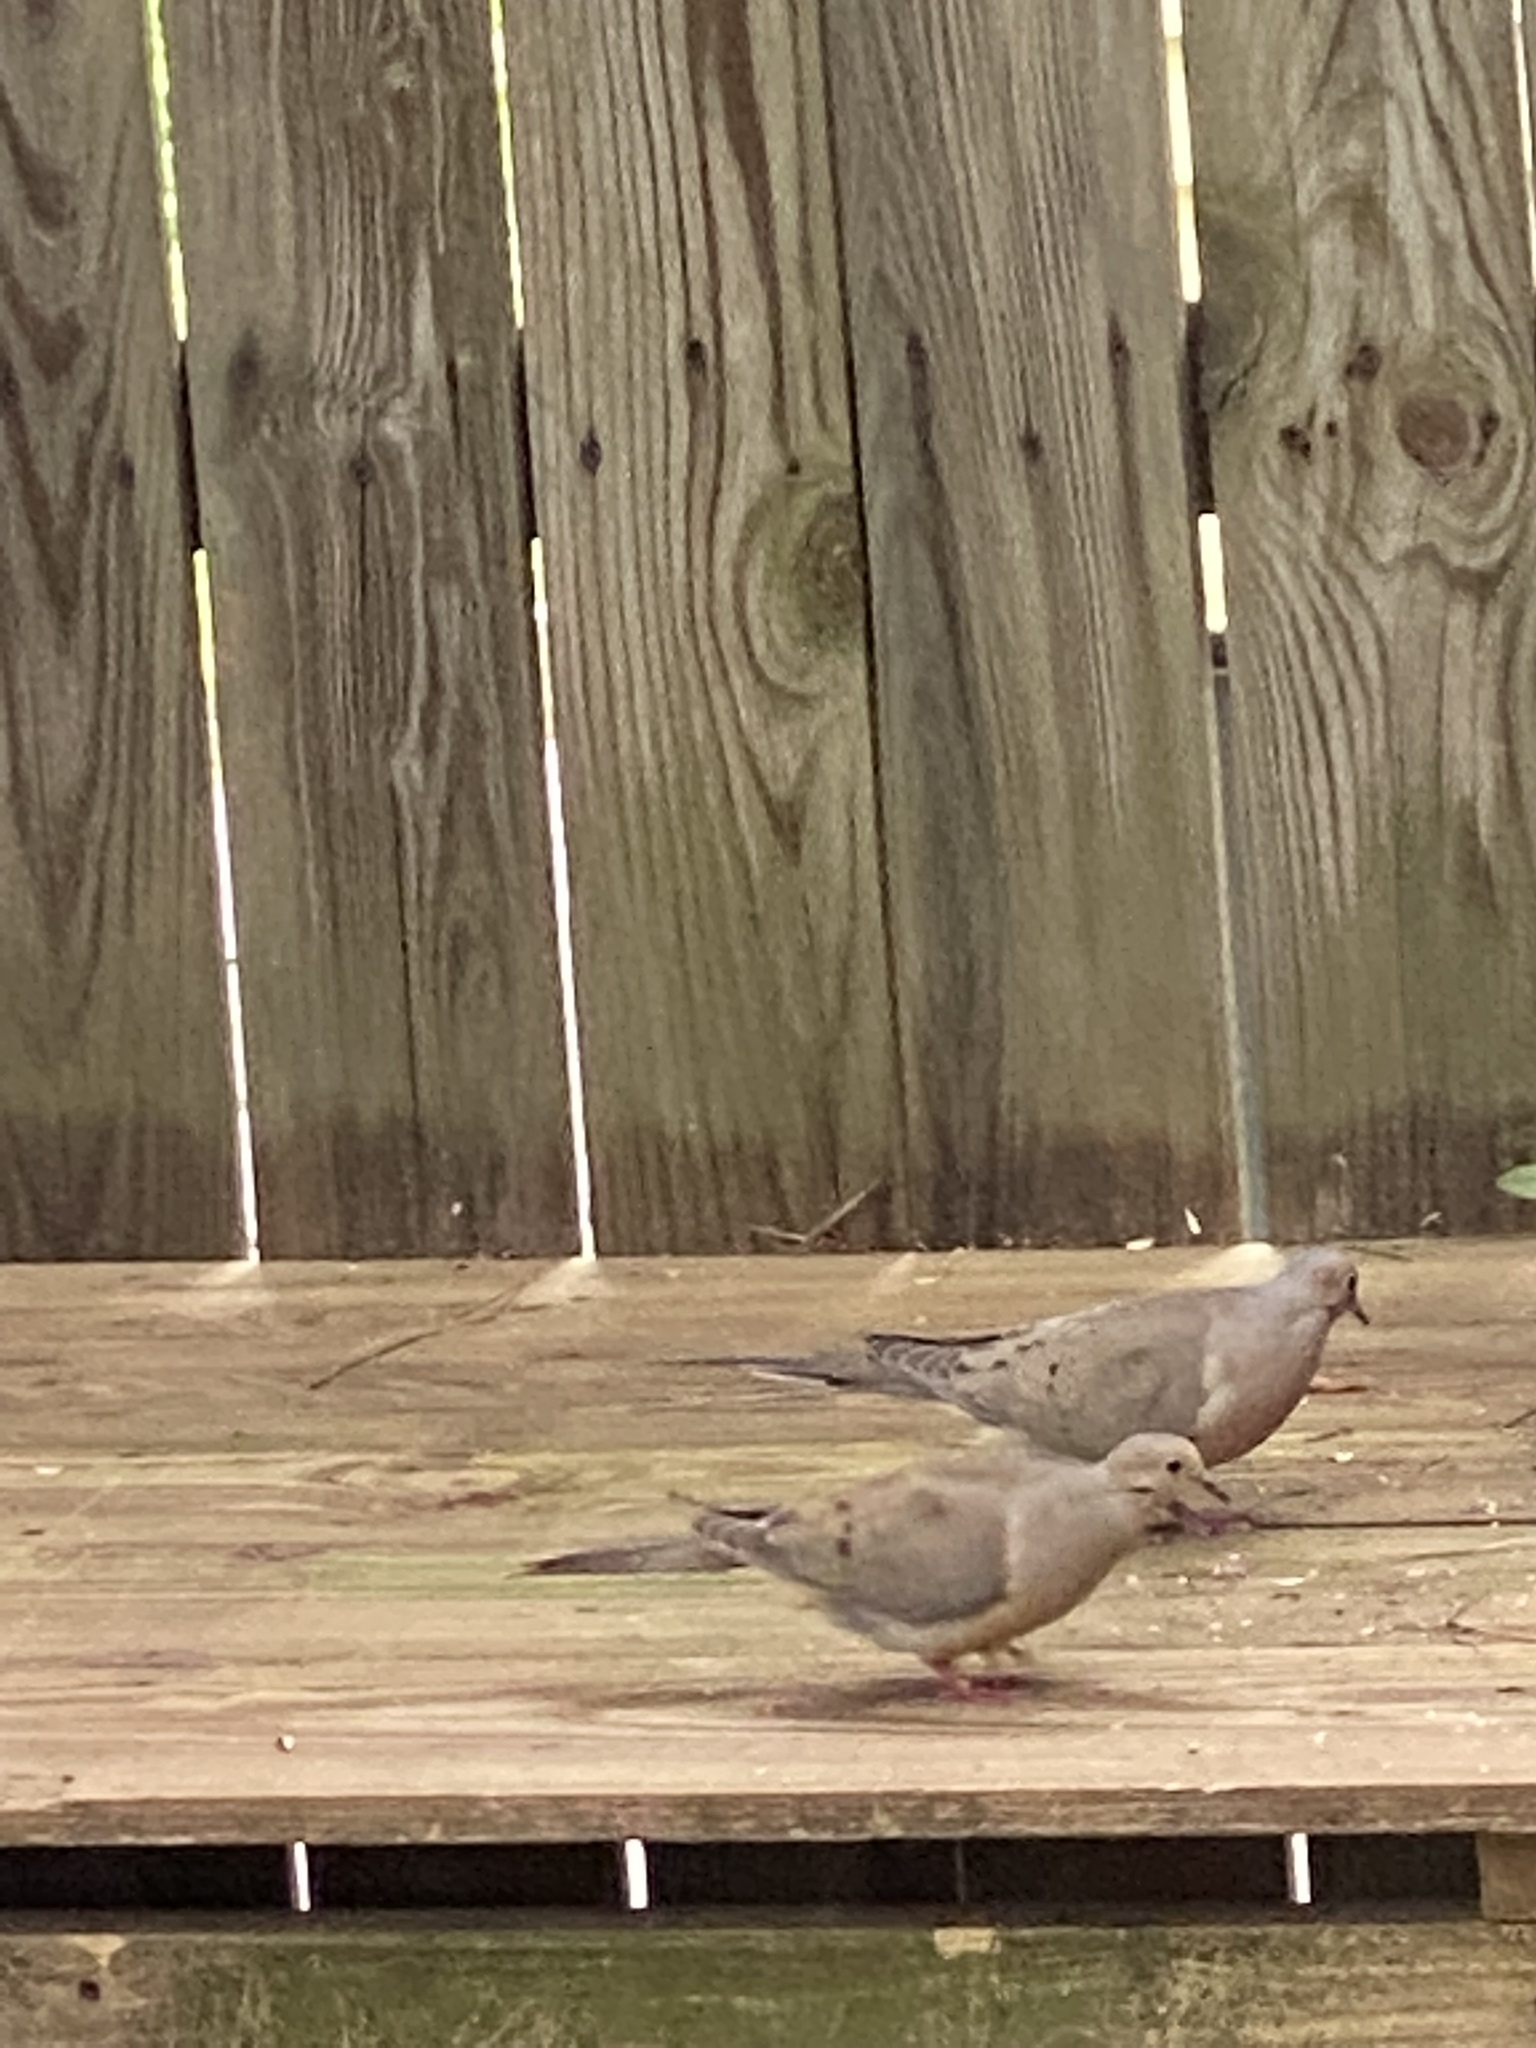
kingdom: Animalia
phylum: Chordata
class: Aves
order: Columbiformes
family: Columbidae
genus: Zenaida
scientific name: Zenaida macroura
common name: Mourning dove
